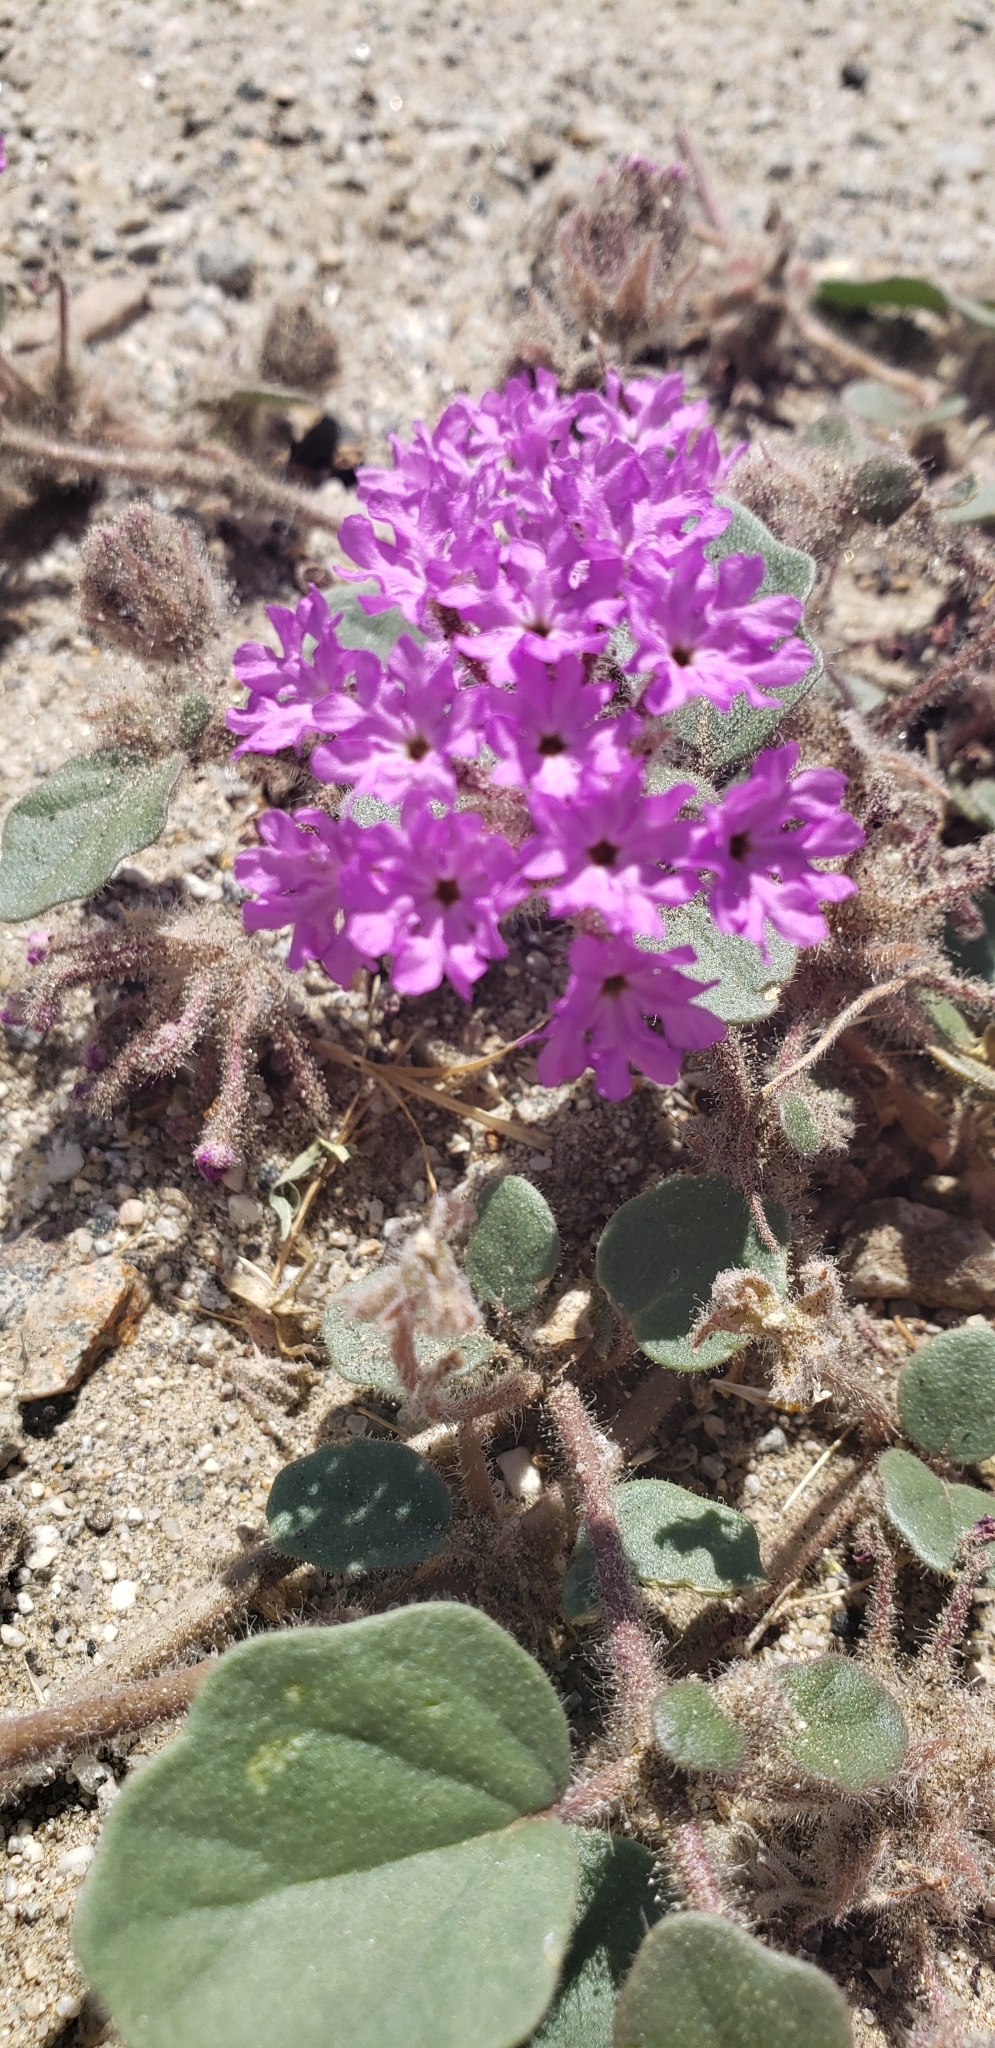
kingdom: Plantae
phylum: Tracheophyta
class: Magnoliopsida
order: Caryophyllales
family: Nyctaginaceae
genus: Abronia
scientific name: Abronia villosa
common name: Desert sand-verbena
